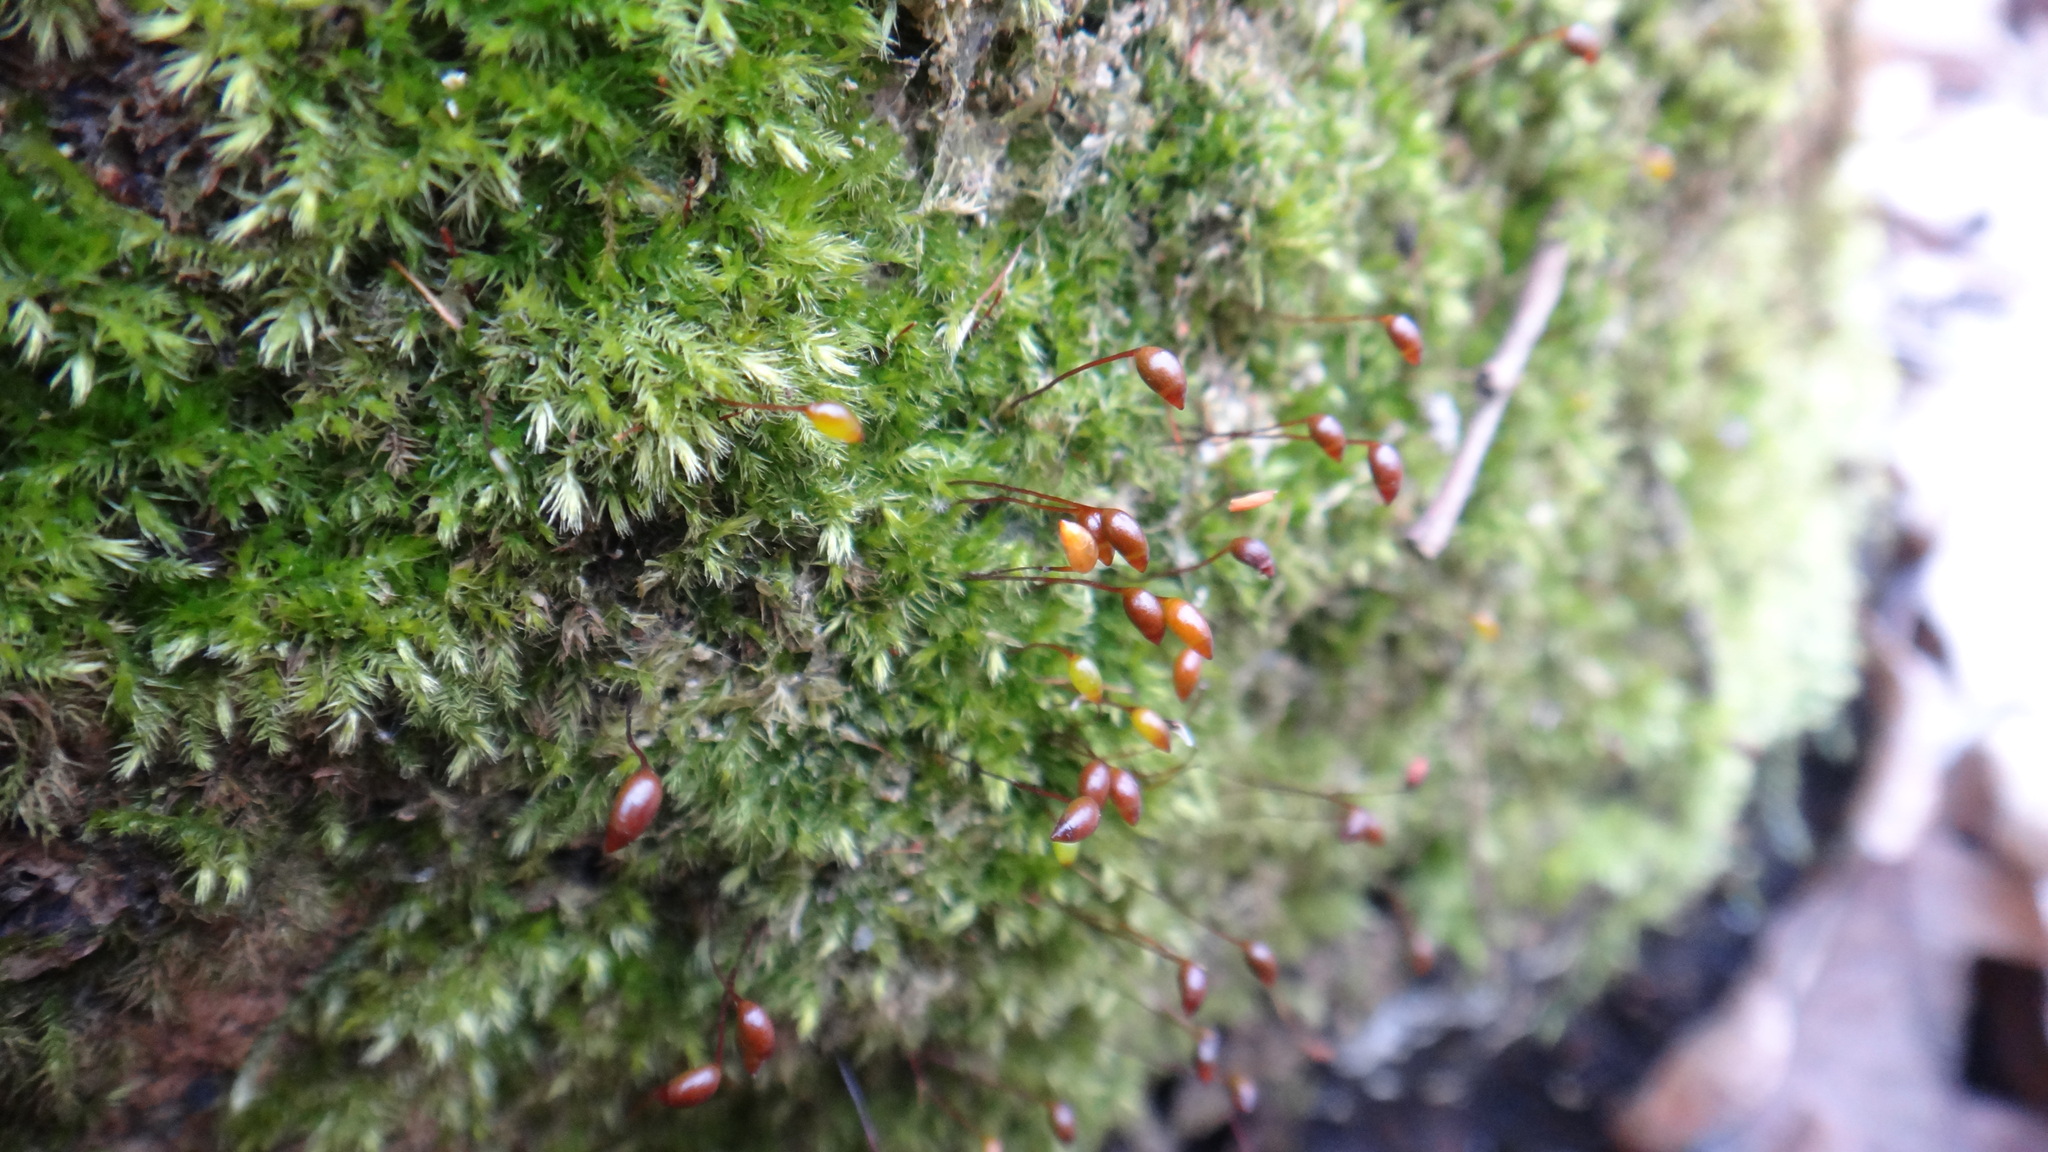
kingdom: Plantae
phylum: Bryophyta
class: Bryopsida
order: Hypnales
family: Brachytheciaceae
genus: Brachytheciastrum
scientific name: Brachytheciastrum velutinum
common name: Velvet feather-moss
